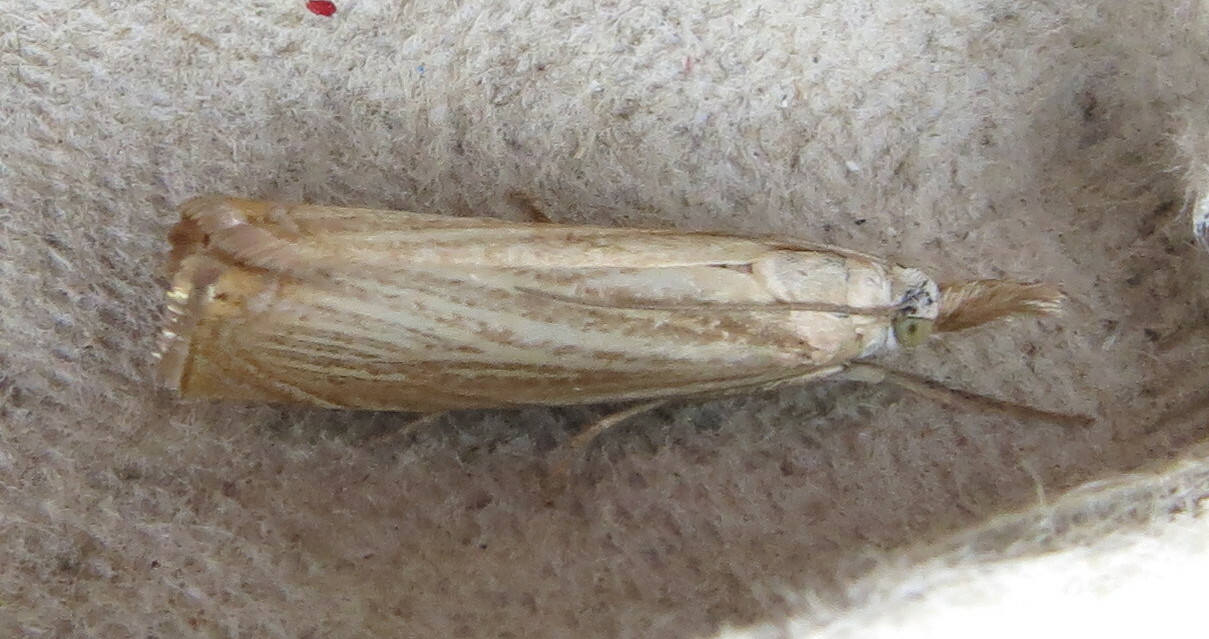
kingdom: Animalia
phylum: Arthropoda
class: Insecta
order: Lepidoptera
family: Crambidae
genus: Chrysoteuchia
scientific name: Chrysoteuchia culmella
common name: Garden grass-veneer
